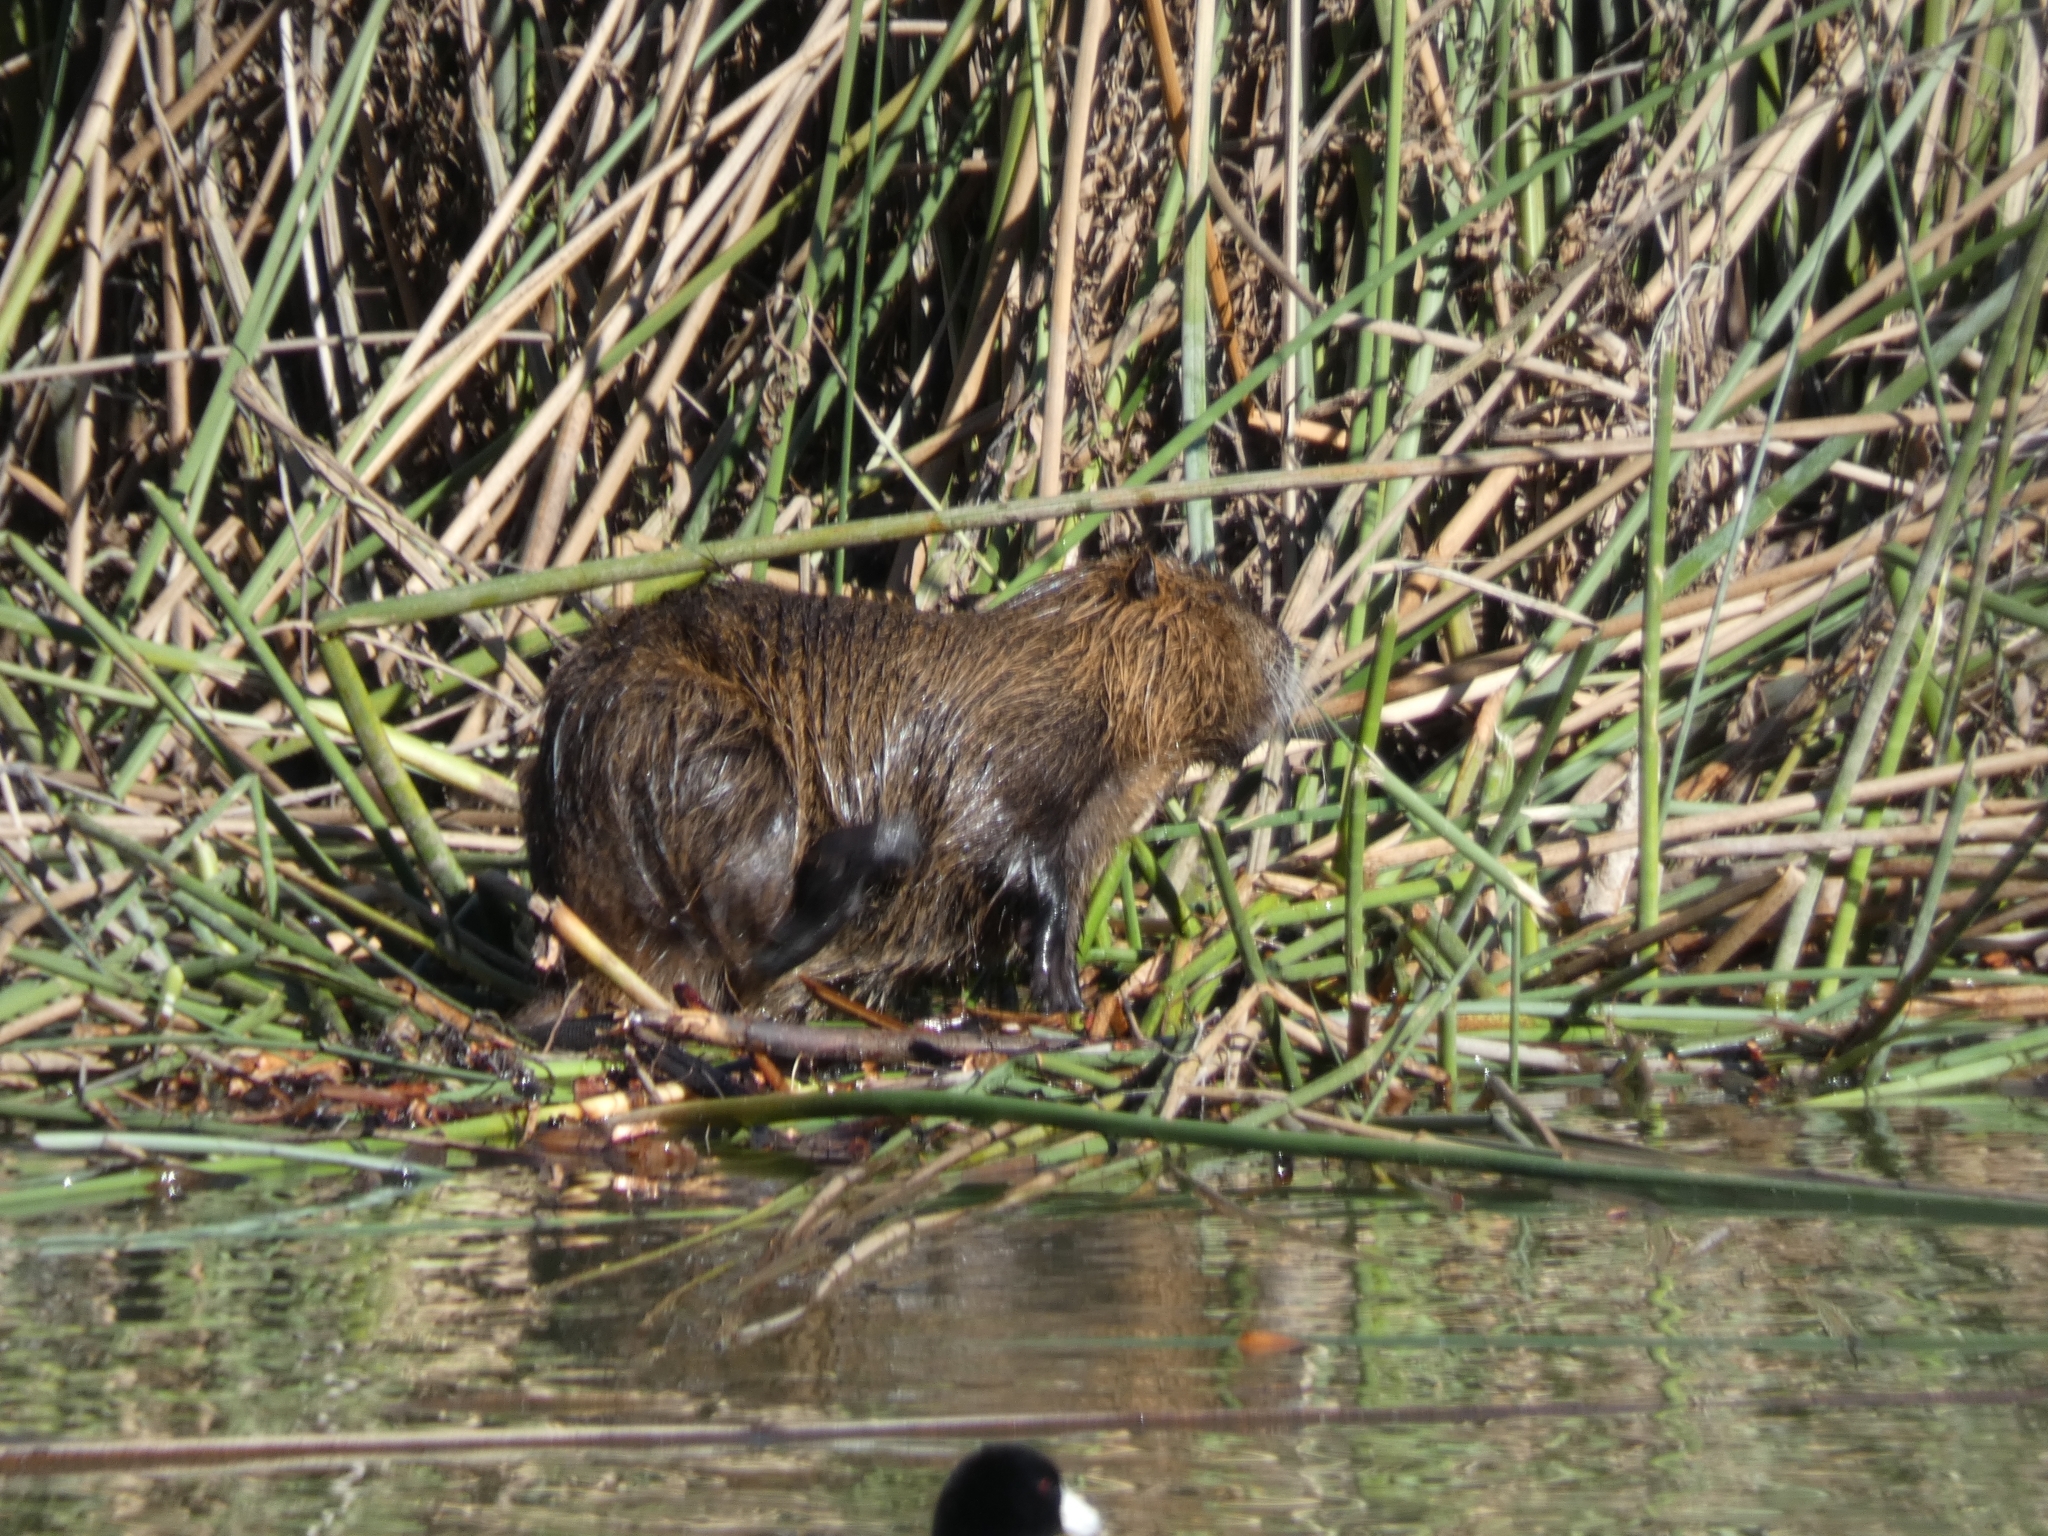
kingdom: Animalia
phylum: Chordata
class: Mammalia
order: Rodentia
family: Myocastoridae
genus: Myocastor
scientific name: Myocastor coypus
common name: Coypu
